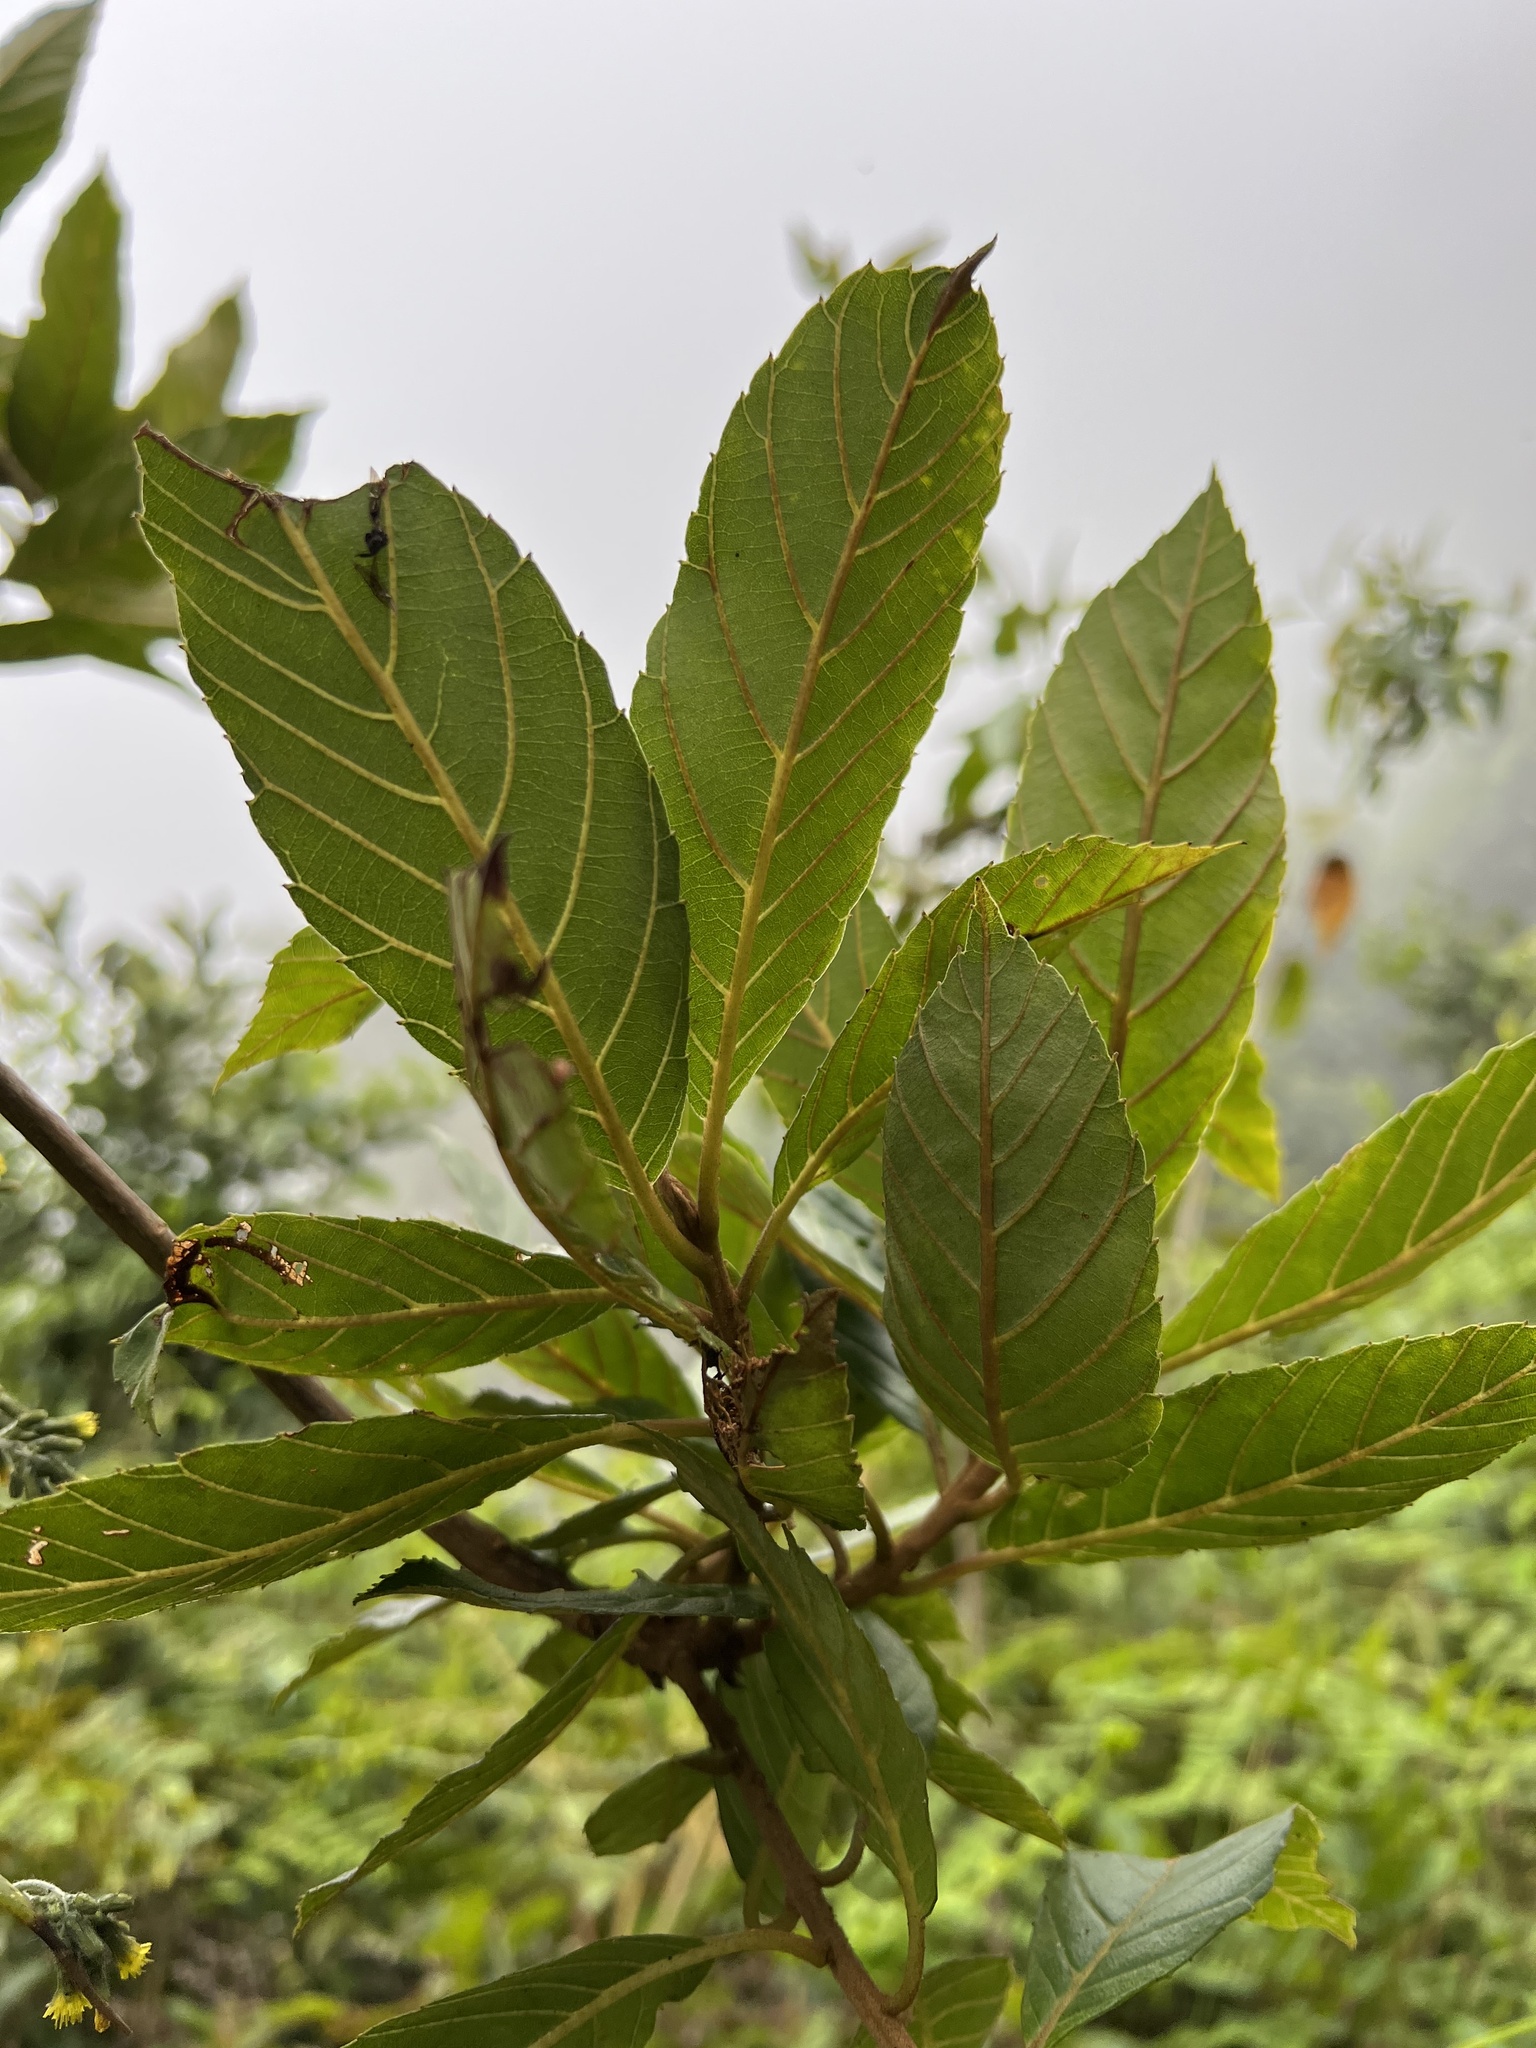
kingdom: Plantae
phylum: Tracheophyta
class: Magnoliopsida
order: Ericales
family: Clethraceae
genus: Clethra
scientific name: Clethra fagifolia
